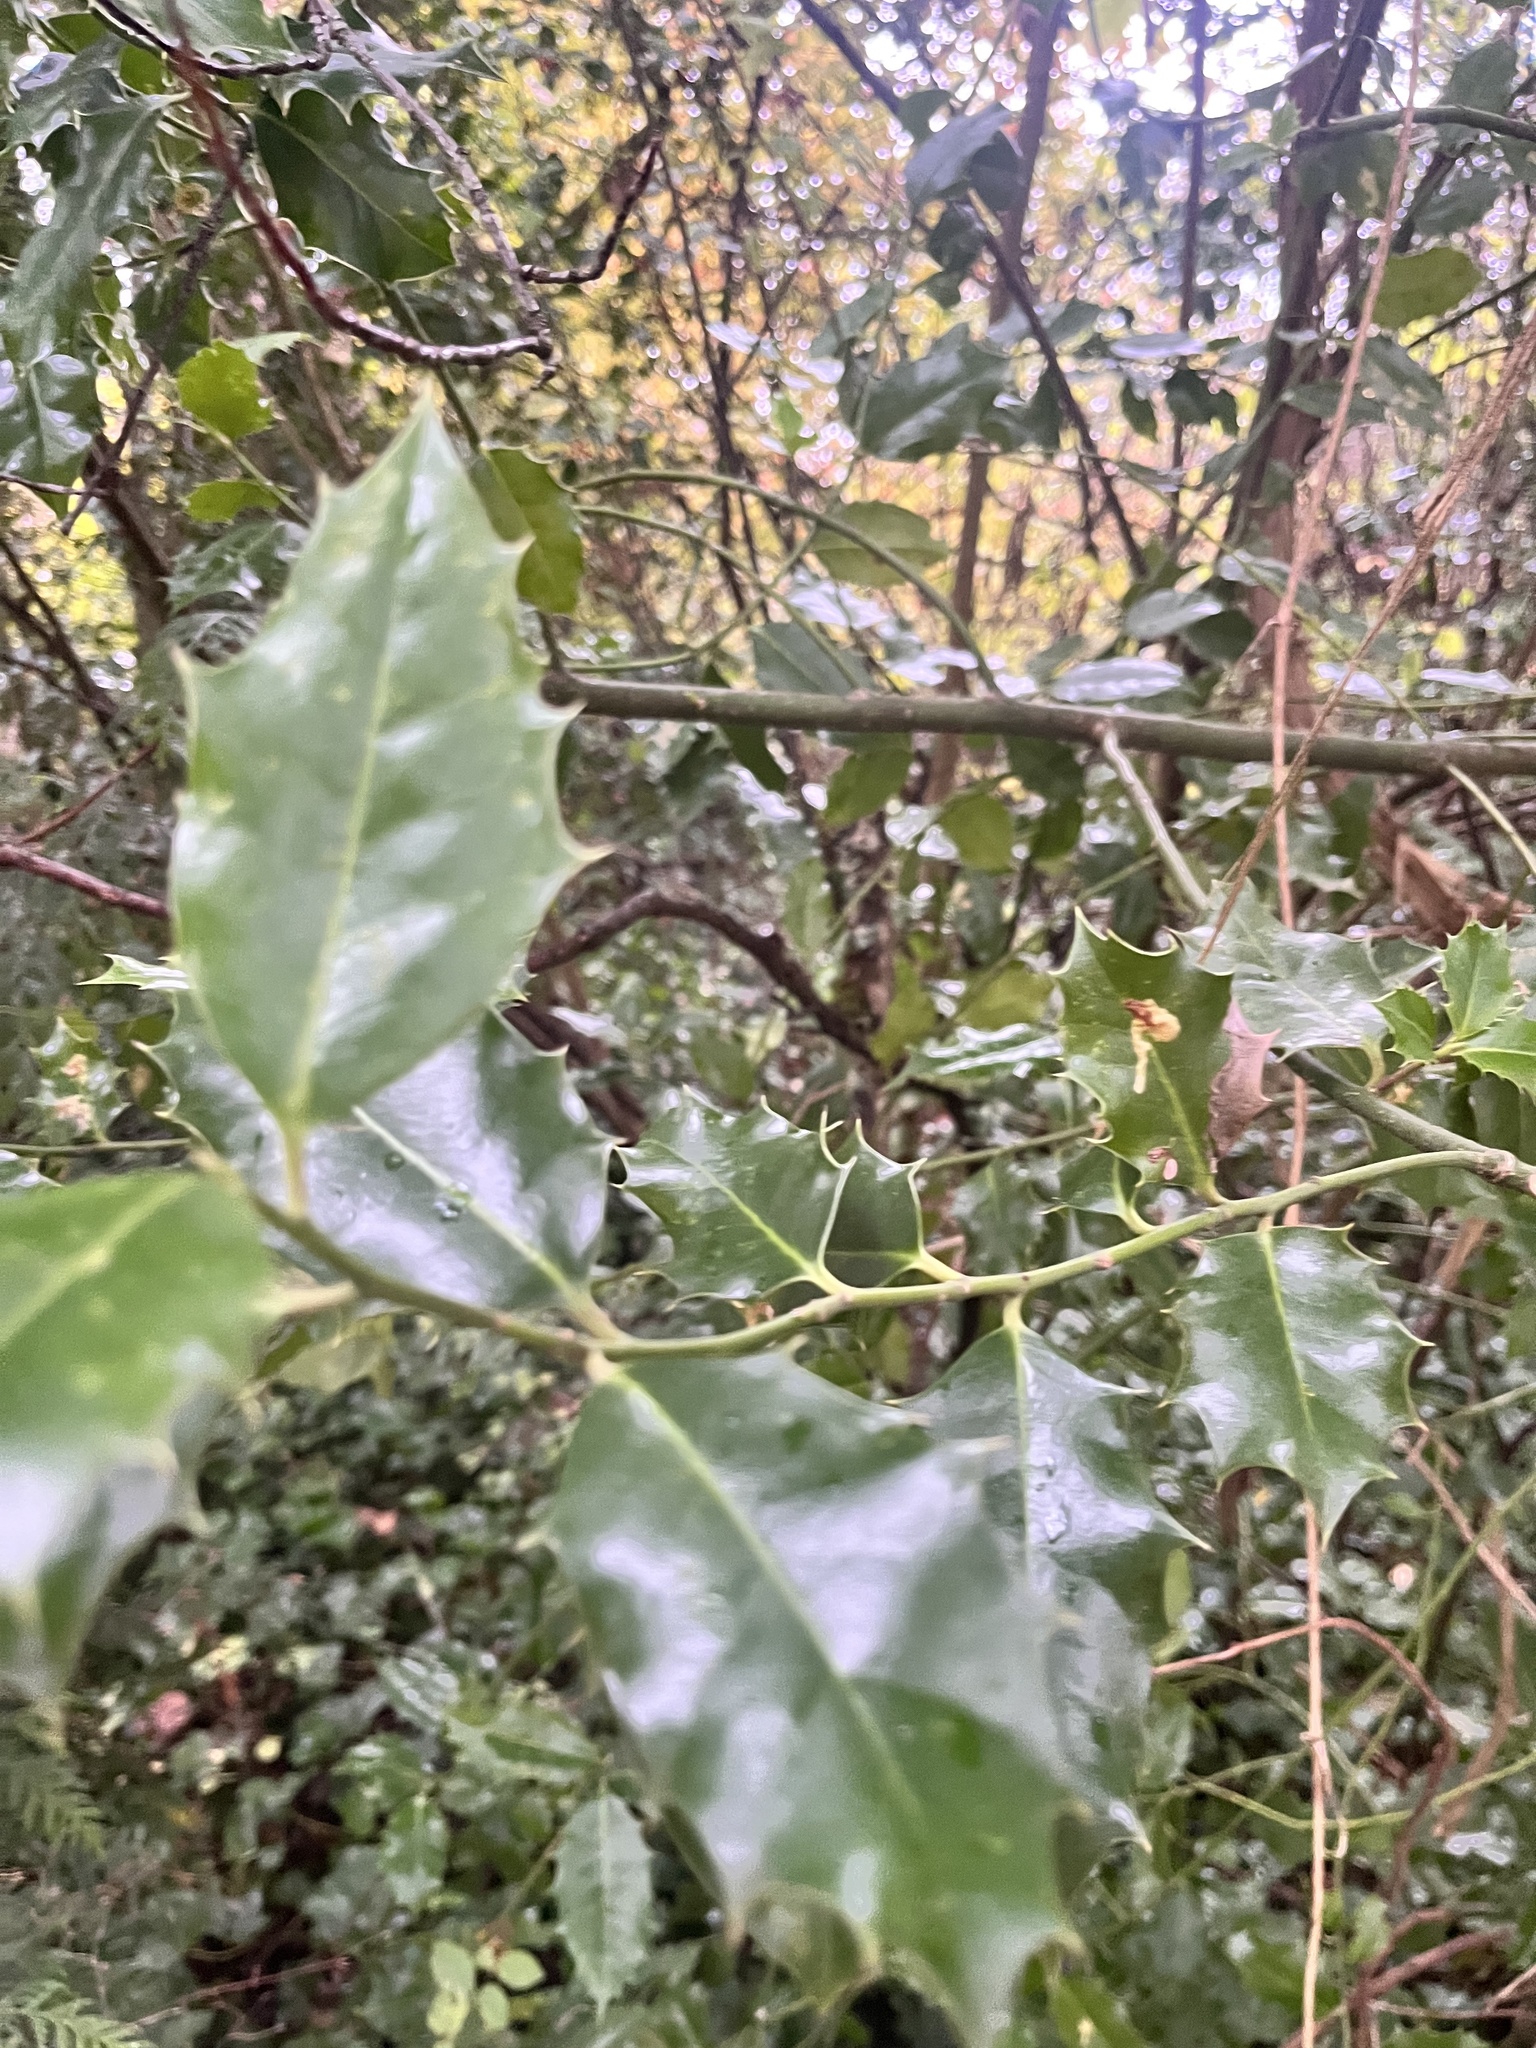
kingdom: Plantae
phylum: Tracheophyta
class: Magnoliopsida
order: Aquifoliales
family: Aquifoliaceae
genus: Ilex
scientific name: Ilex aquifolium
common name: English holly
